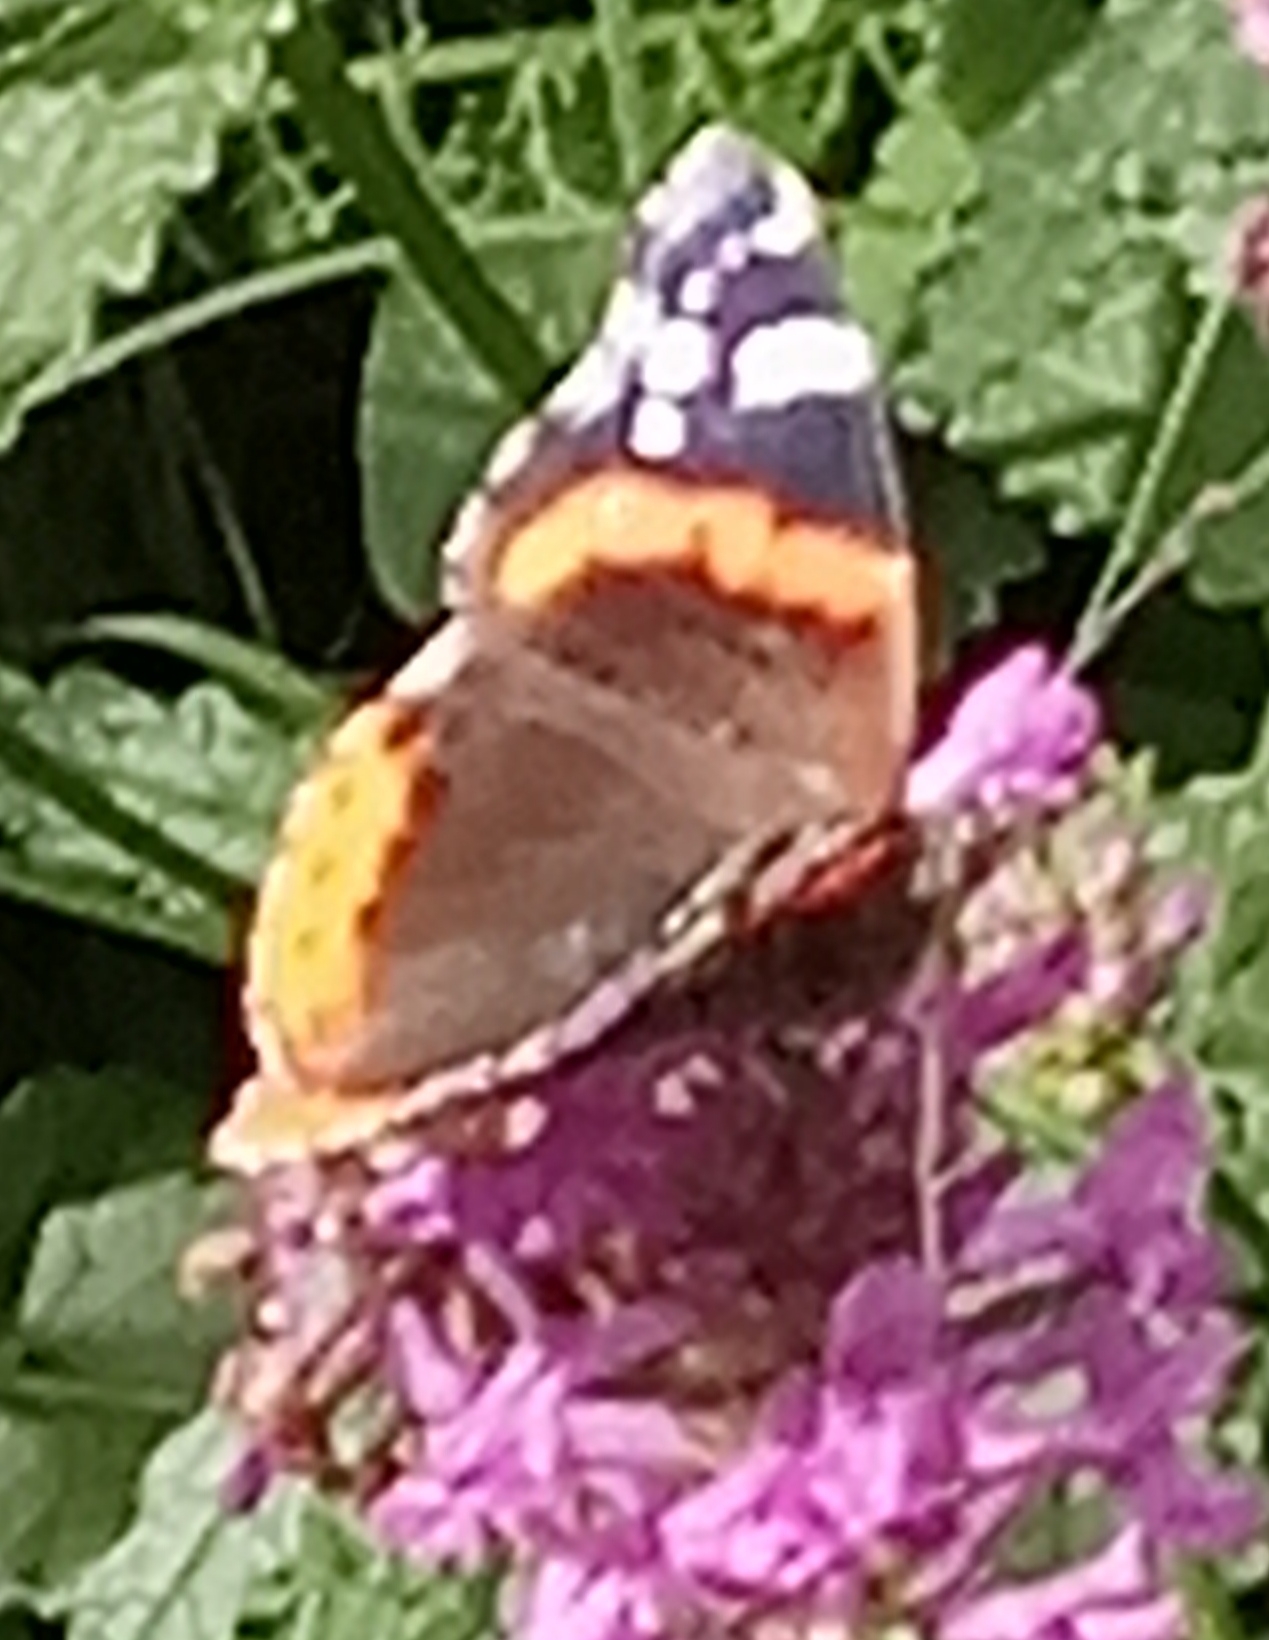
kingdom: Animalia
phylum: Arthropoda
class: Insecta
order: Lepidoptera
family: Nymphalidae
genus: Vanessa
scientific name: Vanessa atalanta
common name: Red admiral
